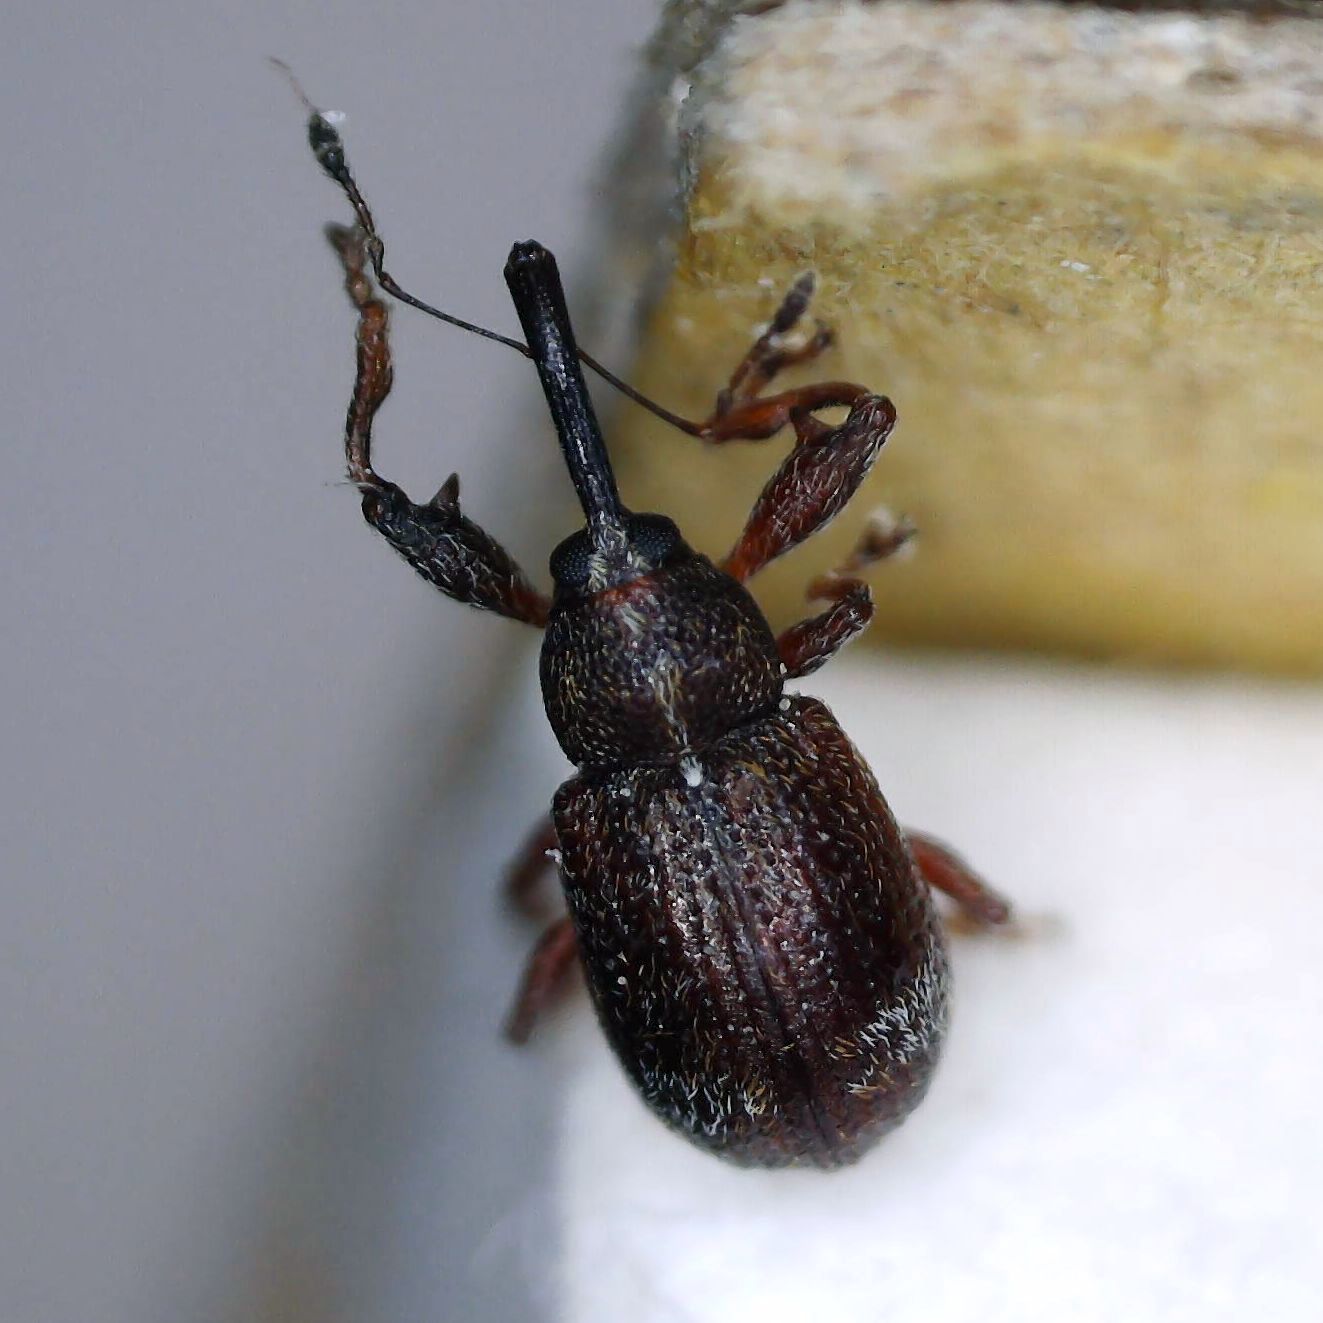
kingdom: Animalia
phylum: Arthropoda
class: Insecta
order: Coleoptera
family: Curculionidae
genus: Anthonomus
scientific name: Anthonomus bituberculatus
